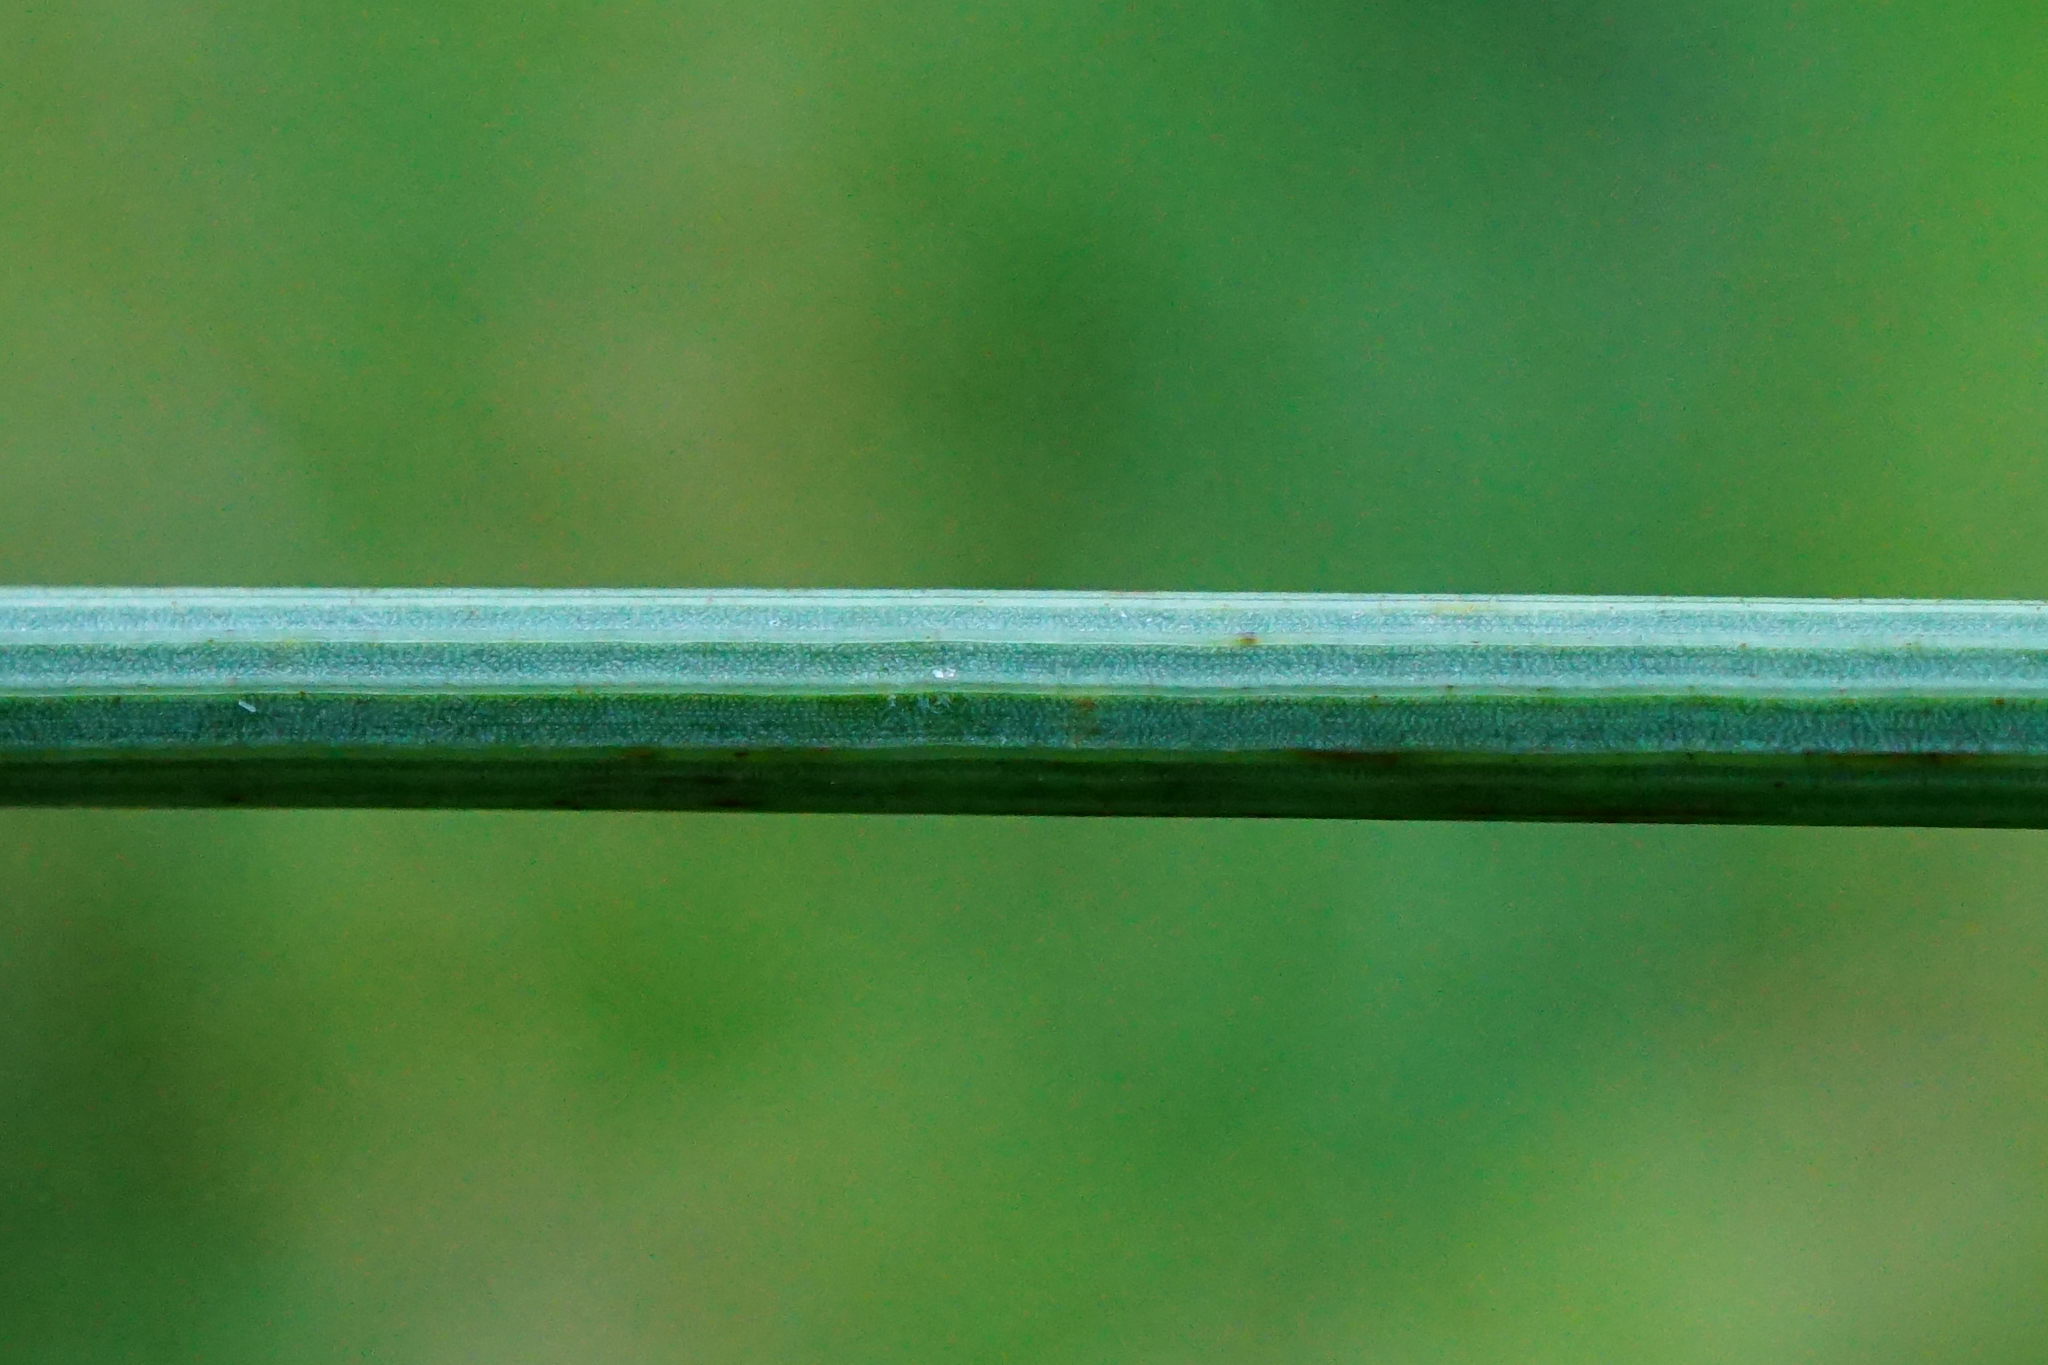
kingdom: Plantae
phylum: Tracheophyta
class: Liliopsida
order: Poales
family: Juncaceae
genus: Juncus
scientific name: Juncus inflexus
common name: Hard rush
